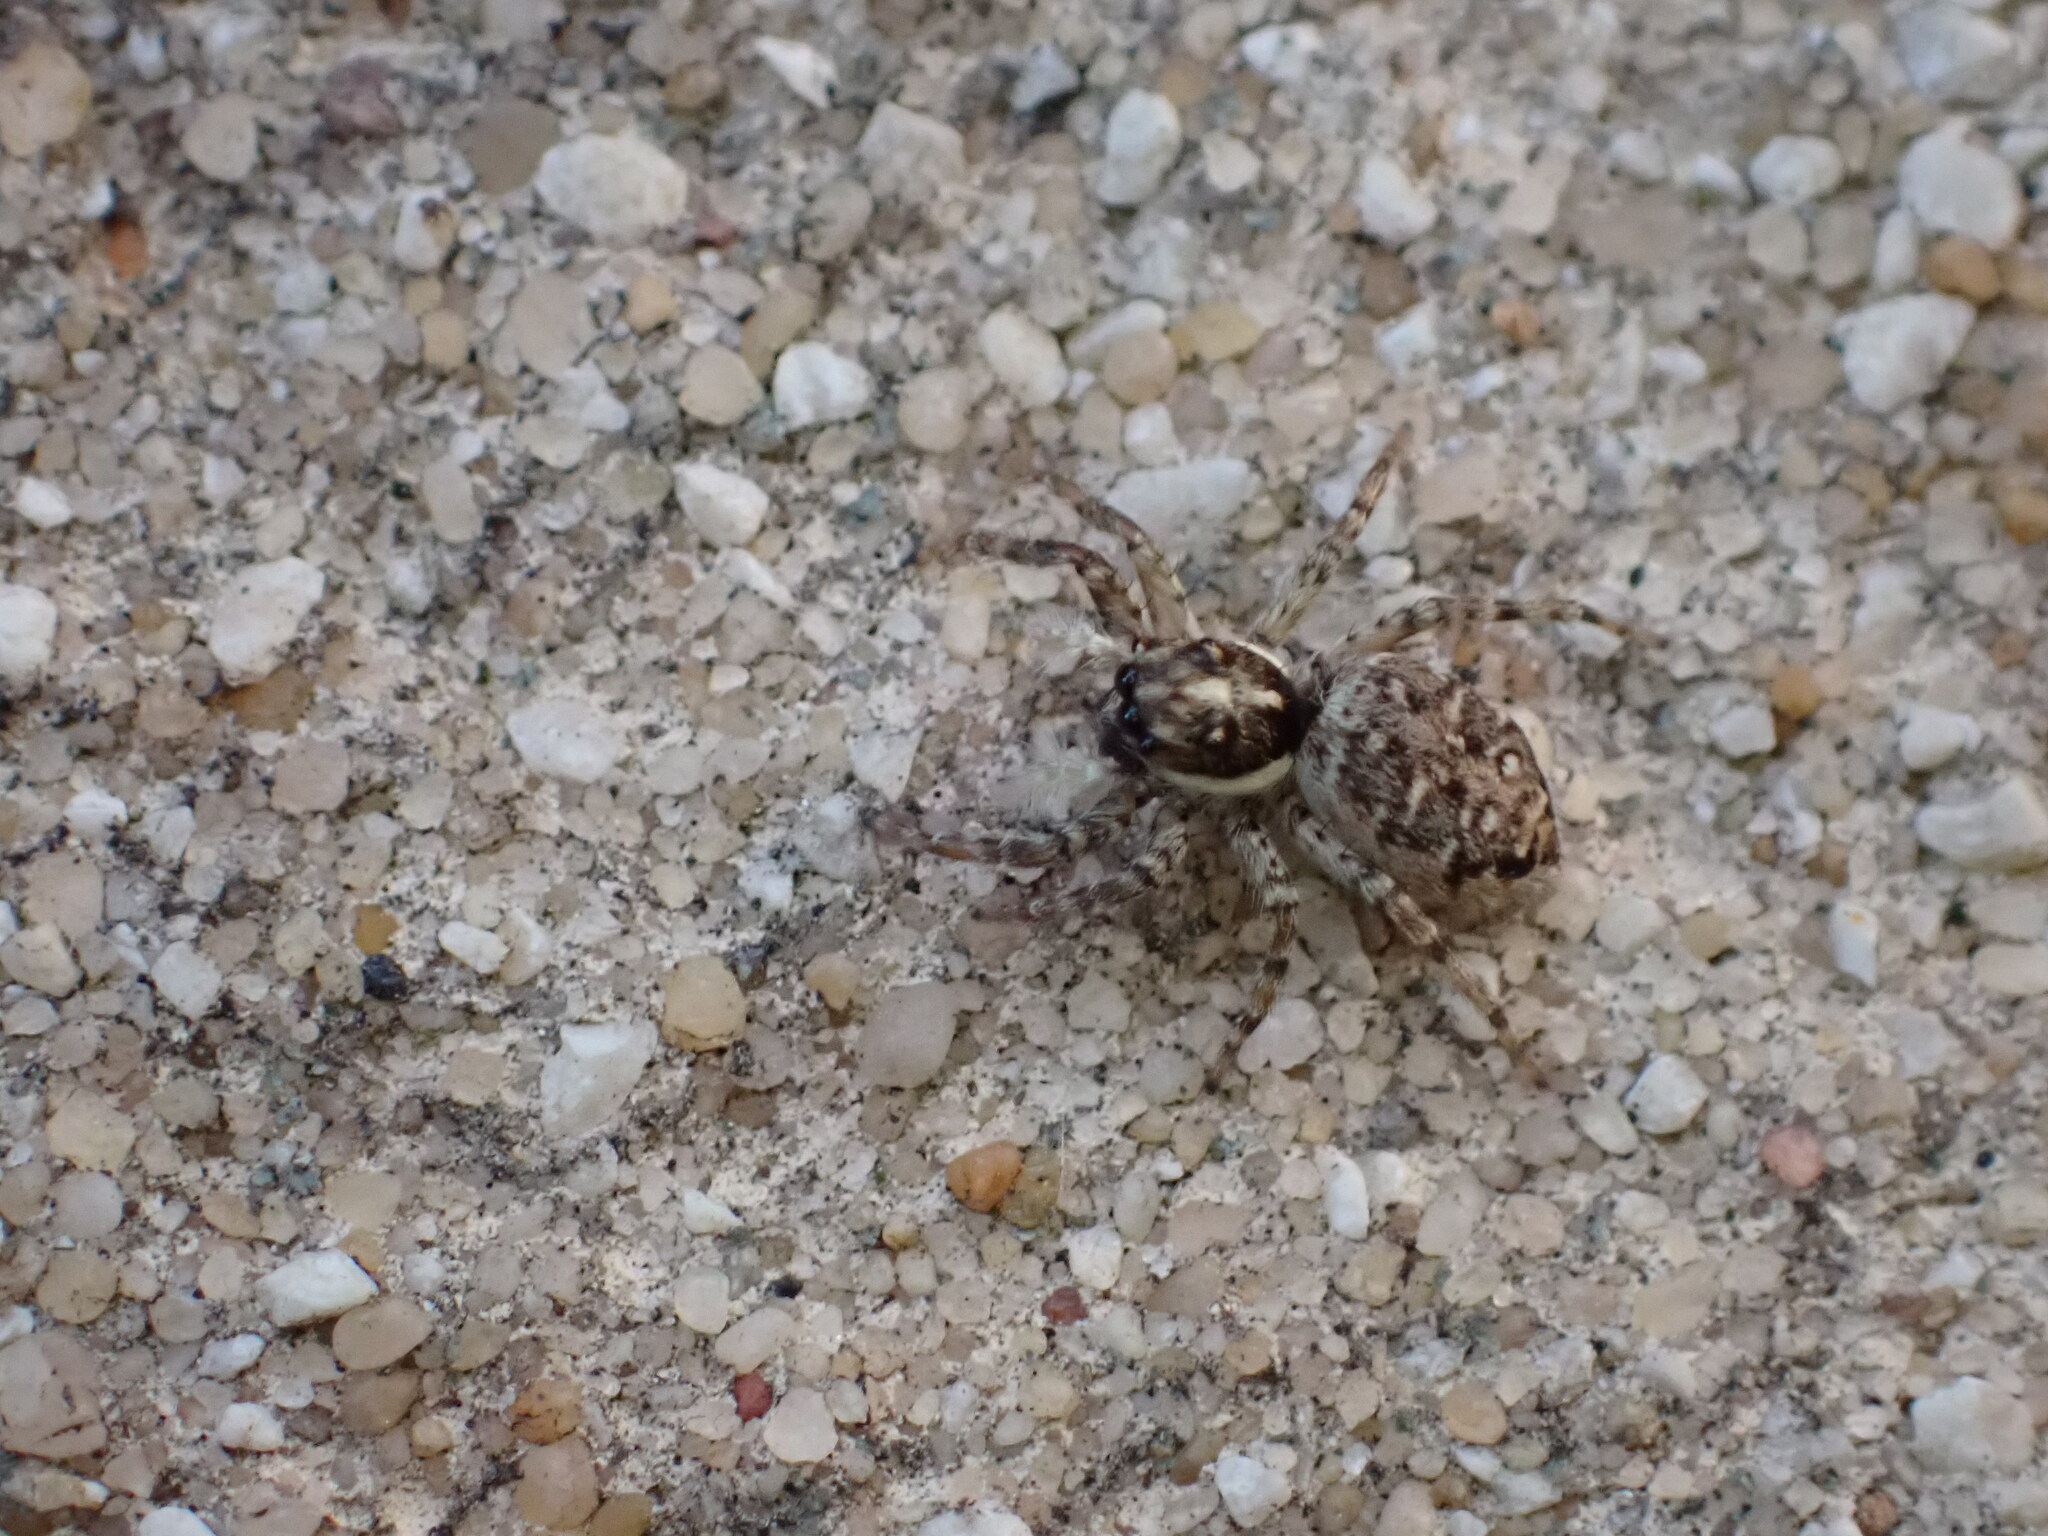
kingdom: Animalia
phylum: Arthropoda
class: Arachnida
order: Araneae
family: Salticidae
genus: Menemerus
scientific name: Menemerus semilimbatus
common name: Jumping spider
